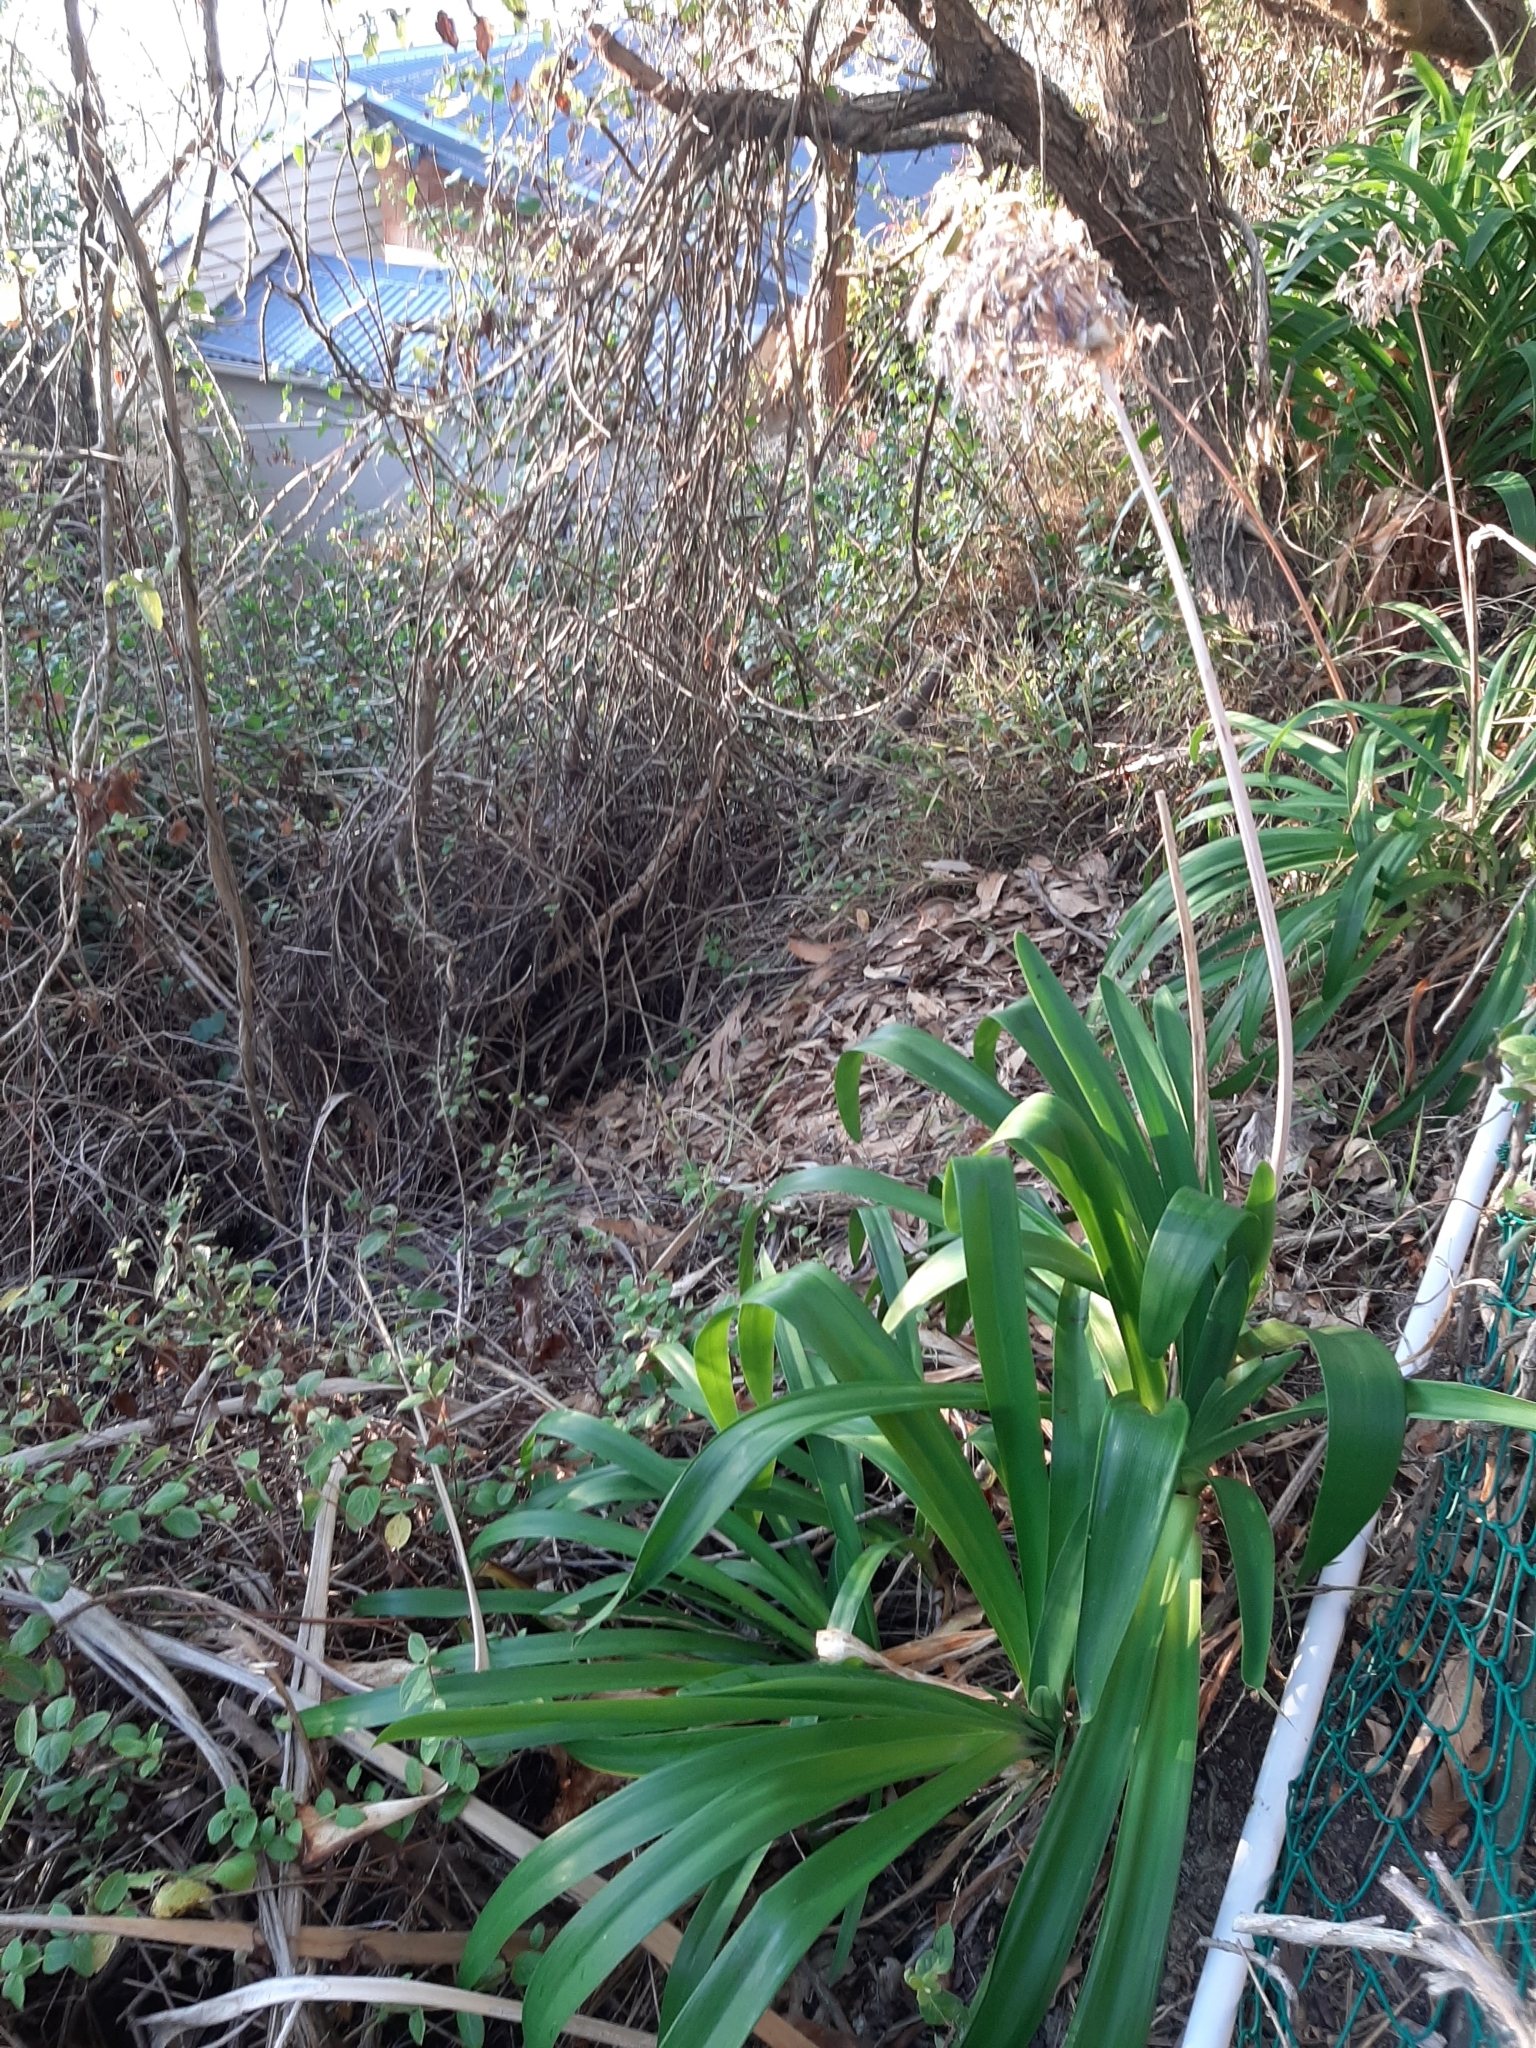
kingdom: Plantae
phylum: Tracheophyta
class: Liliopsida
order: Asparagales
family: Amaryllidaceae
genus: Agapanthus
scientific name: Agapanthus praecox
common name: African-lily
